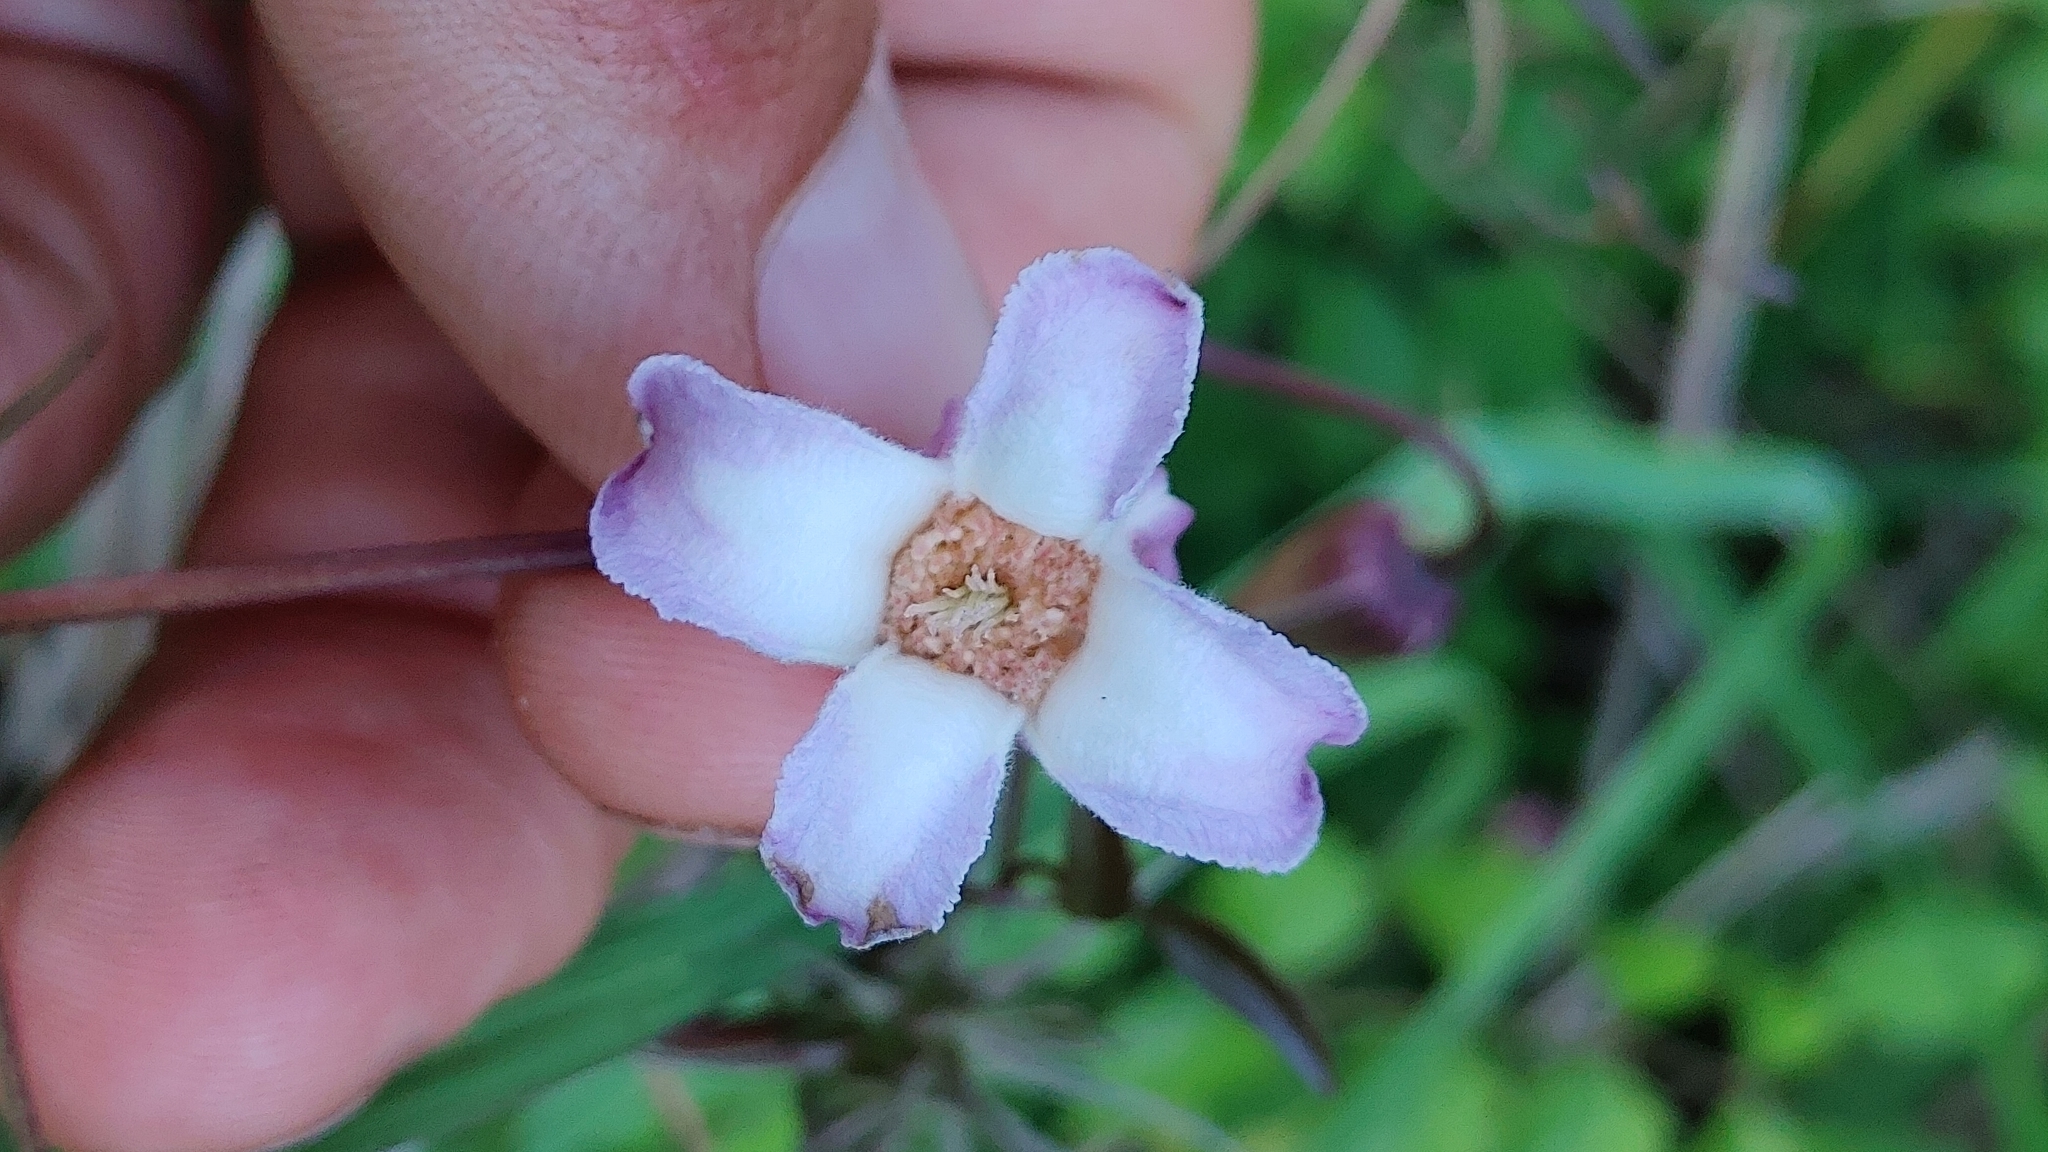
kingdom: Plantae
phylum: Tracheophyta
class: Magnoliopsida
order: Ranunculales
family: Ranunculaceae
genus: Clematis
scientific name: Clematis crispa
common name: Curly clematis
